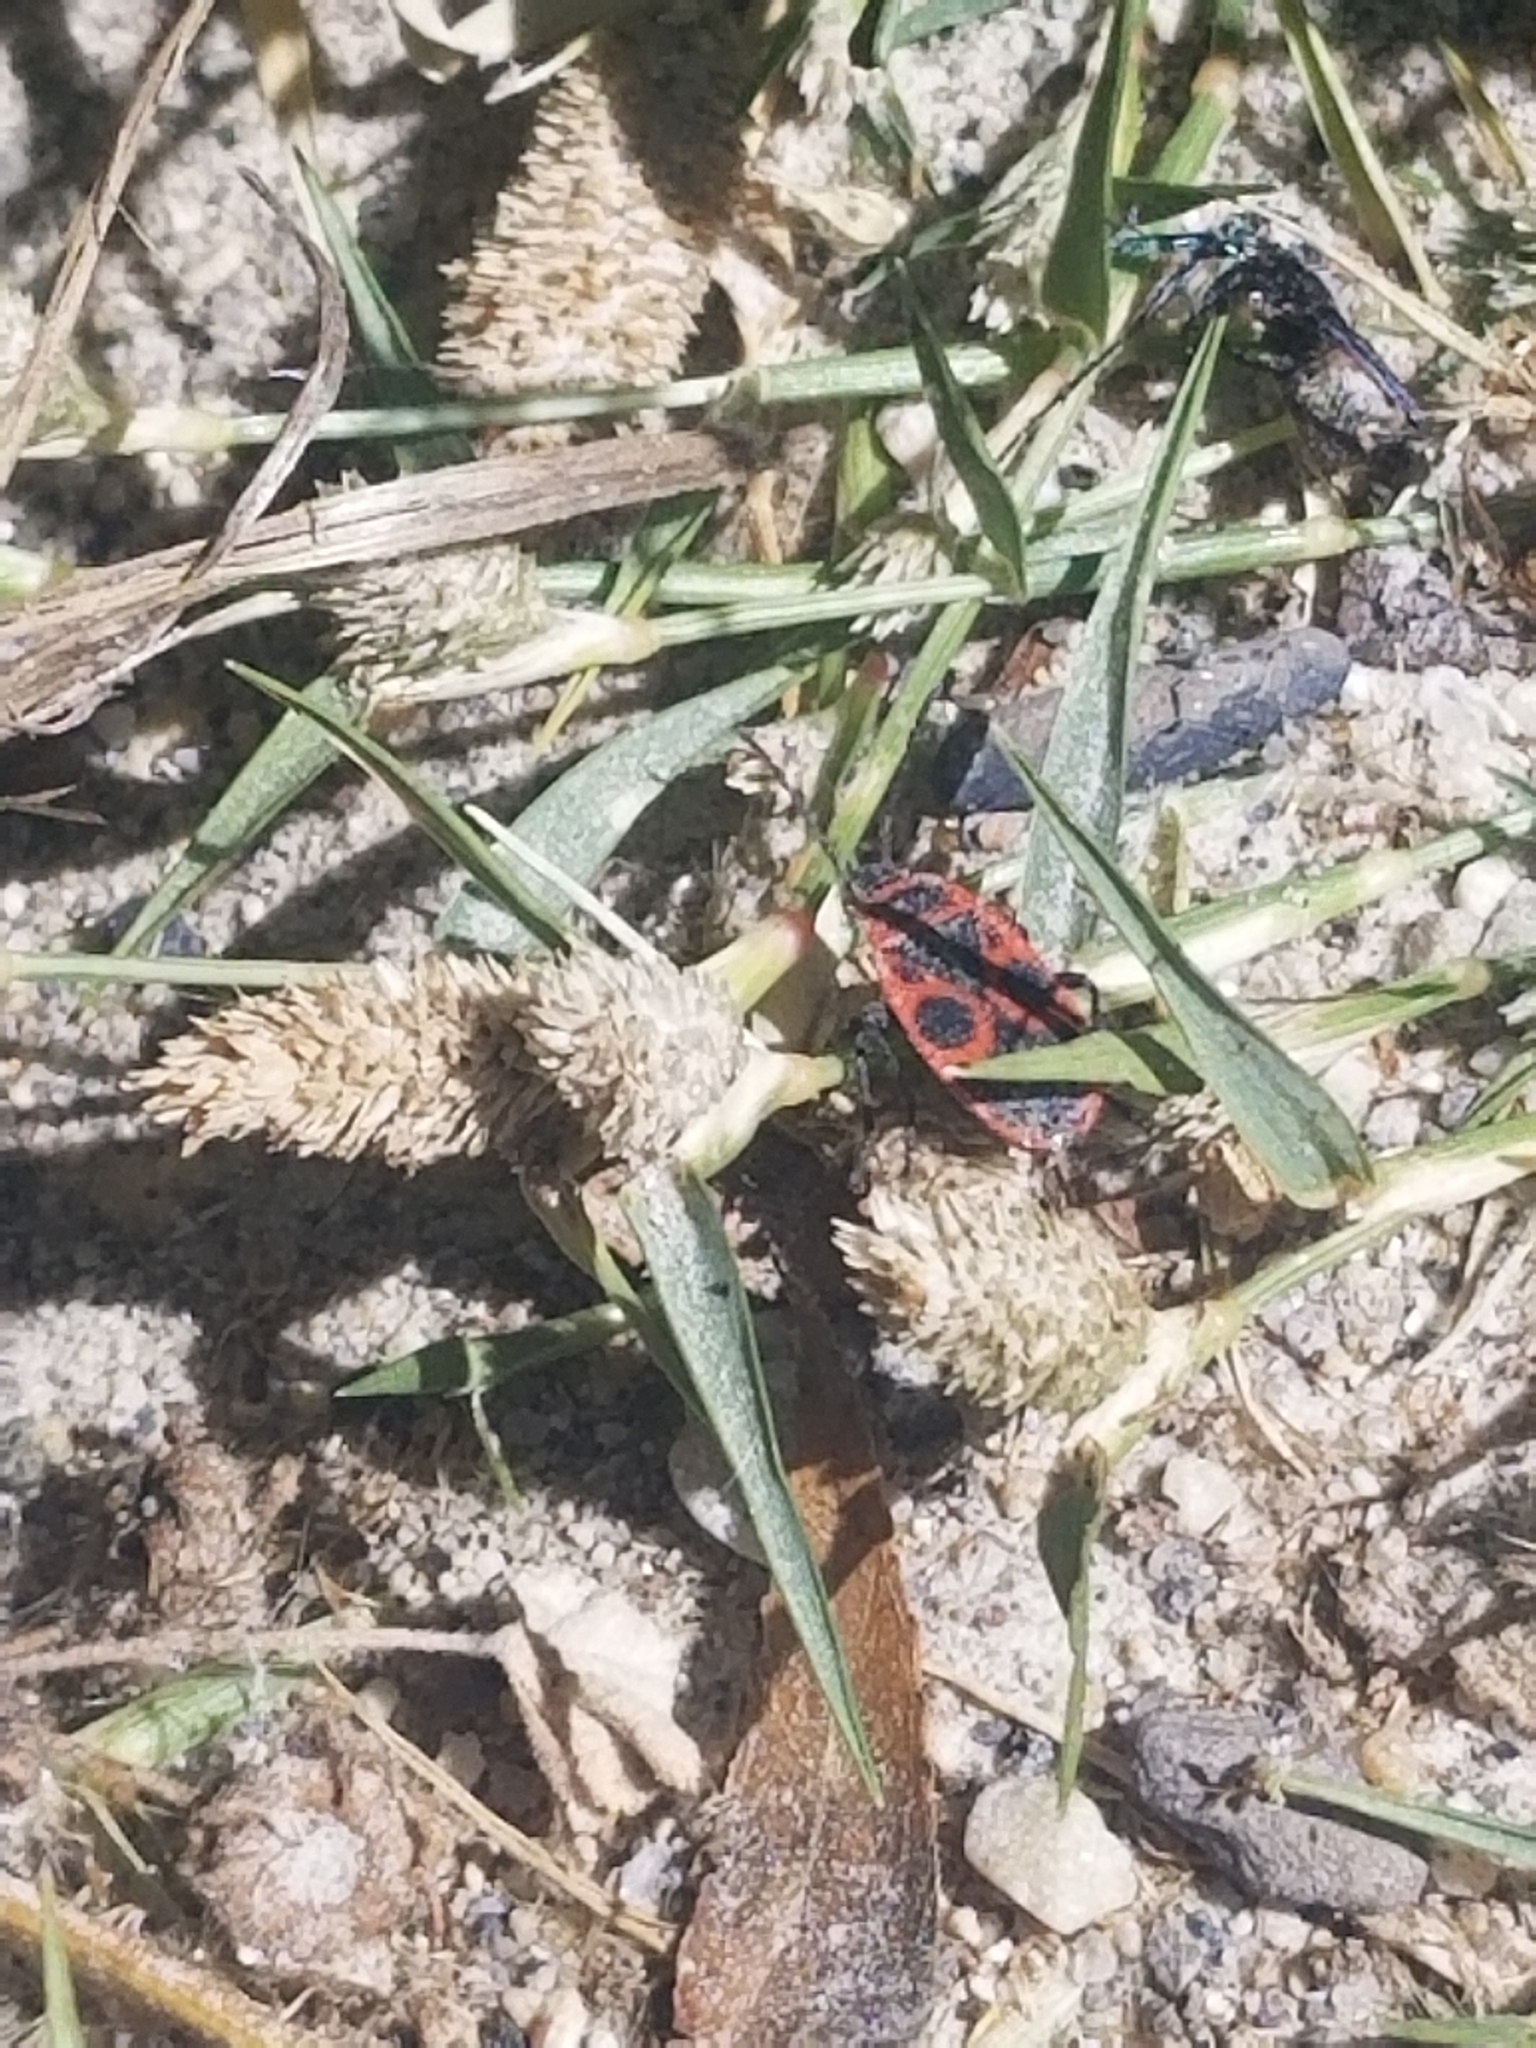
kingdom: Animalia
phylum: Arthropoda
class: Insecta
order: Hemiptera
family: Pyrrhocoridae
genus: Pyrrhocoris
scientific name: Pyrrhocoris apterus
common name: Firebug
